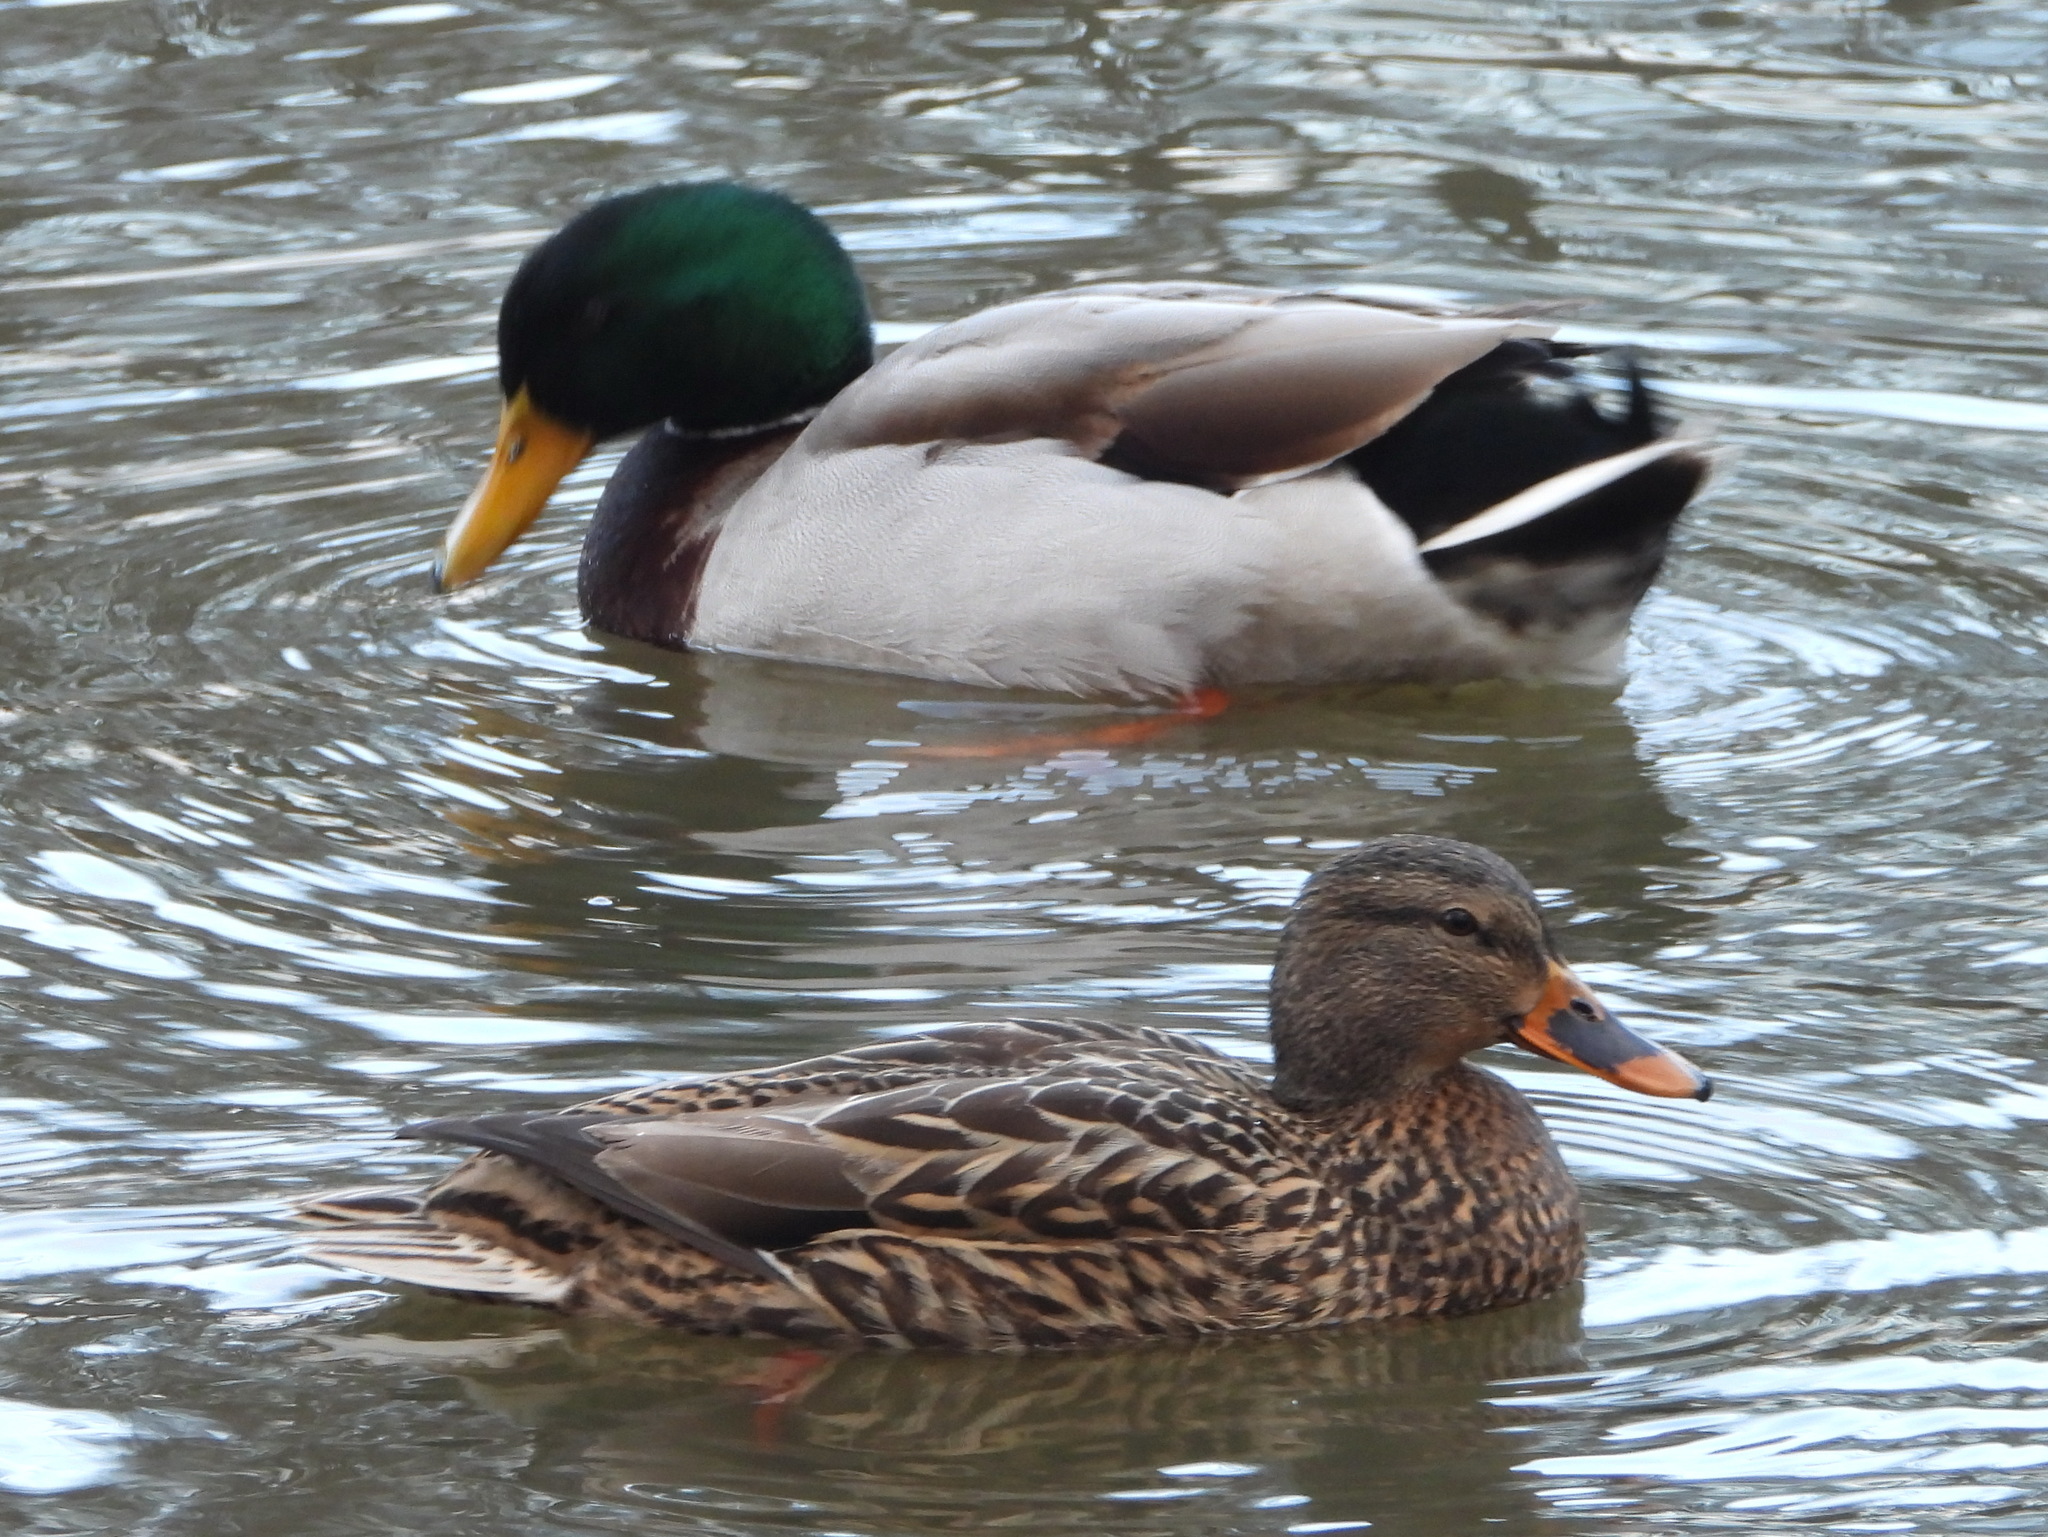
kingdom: Animalia
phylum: Chordata
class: Aves
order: Anseriformes
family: Anatidae
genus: Anas
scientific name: Anas platyrhynchos
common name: Mallard
